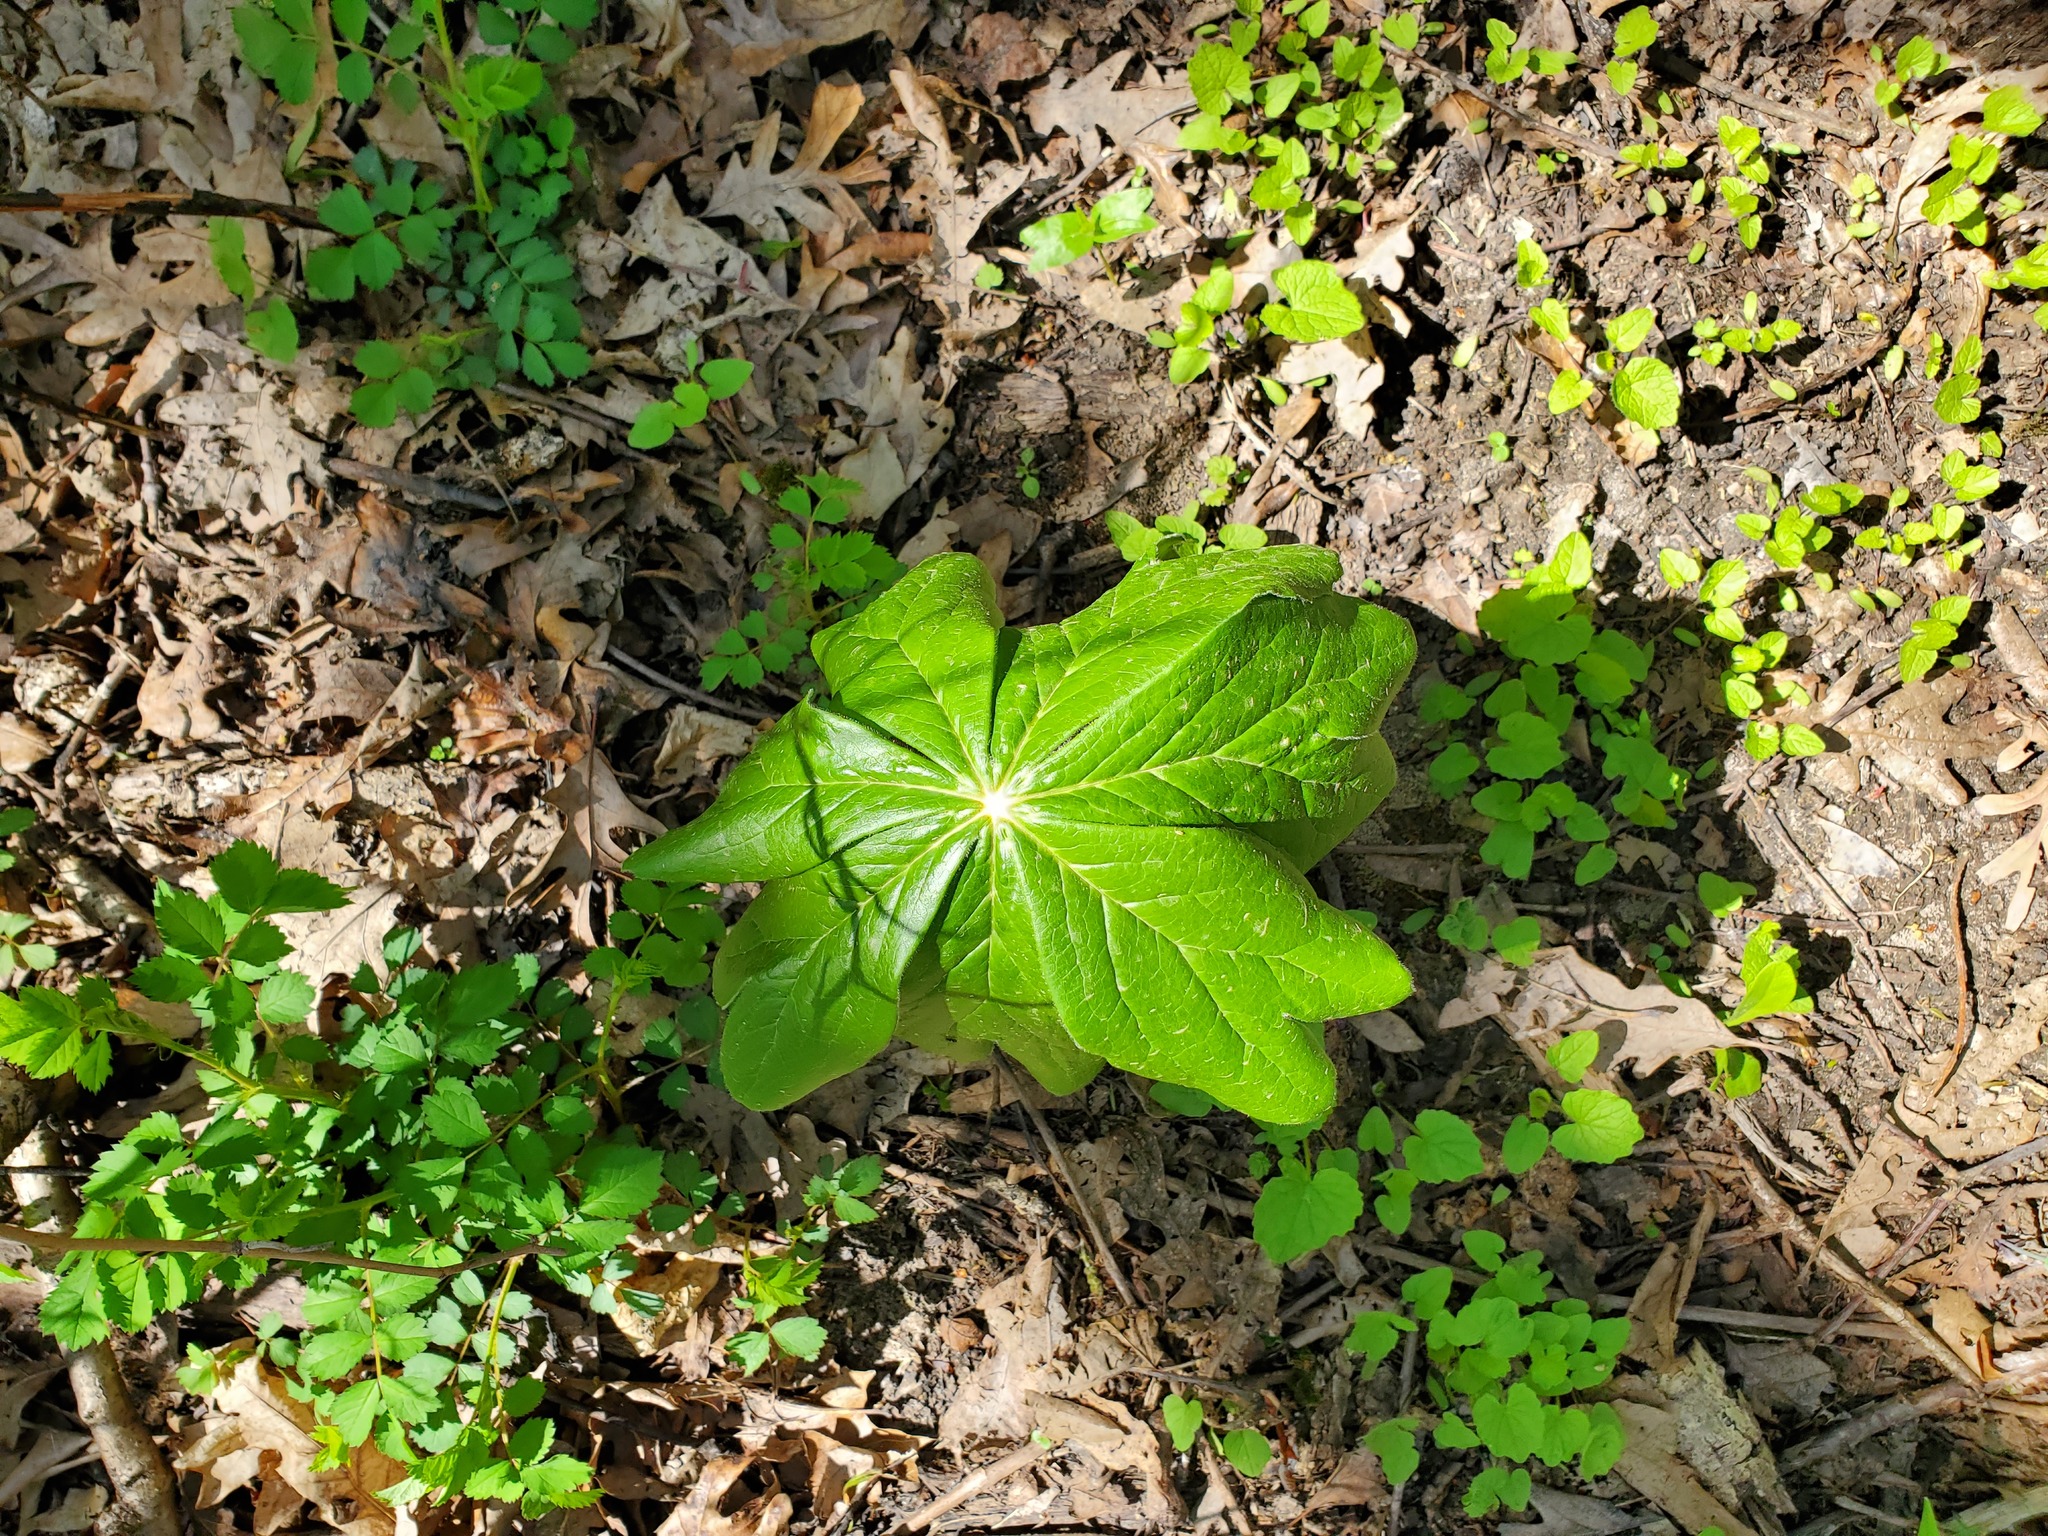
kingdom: Plantae
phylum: Tracheophyta
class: Magnoliopsida
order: Ranunculales
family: Berberidaceae
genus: Podophyllum
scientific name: Podophyllum peltatum
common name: Wild mandrake
